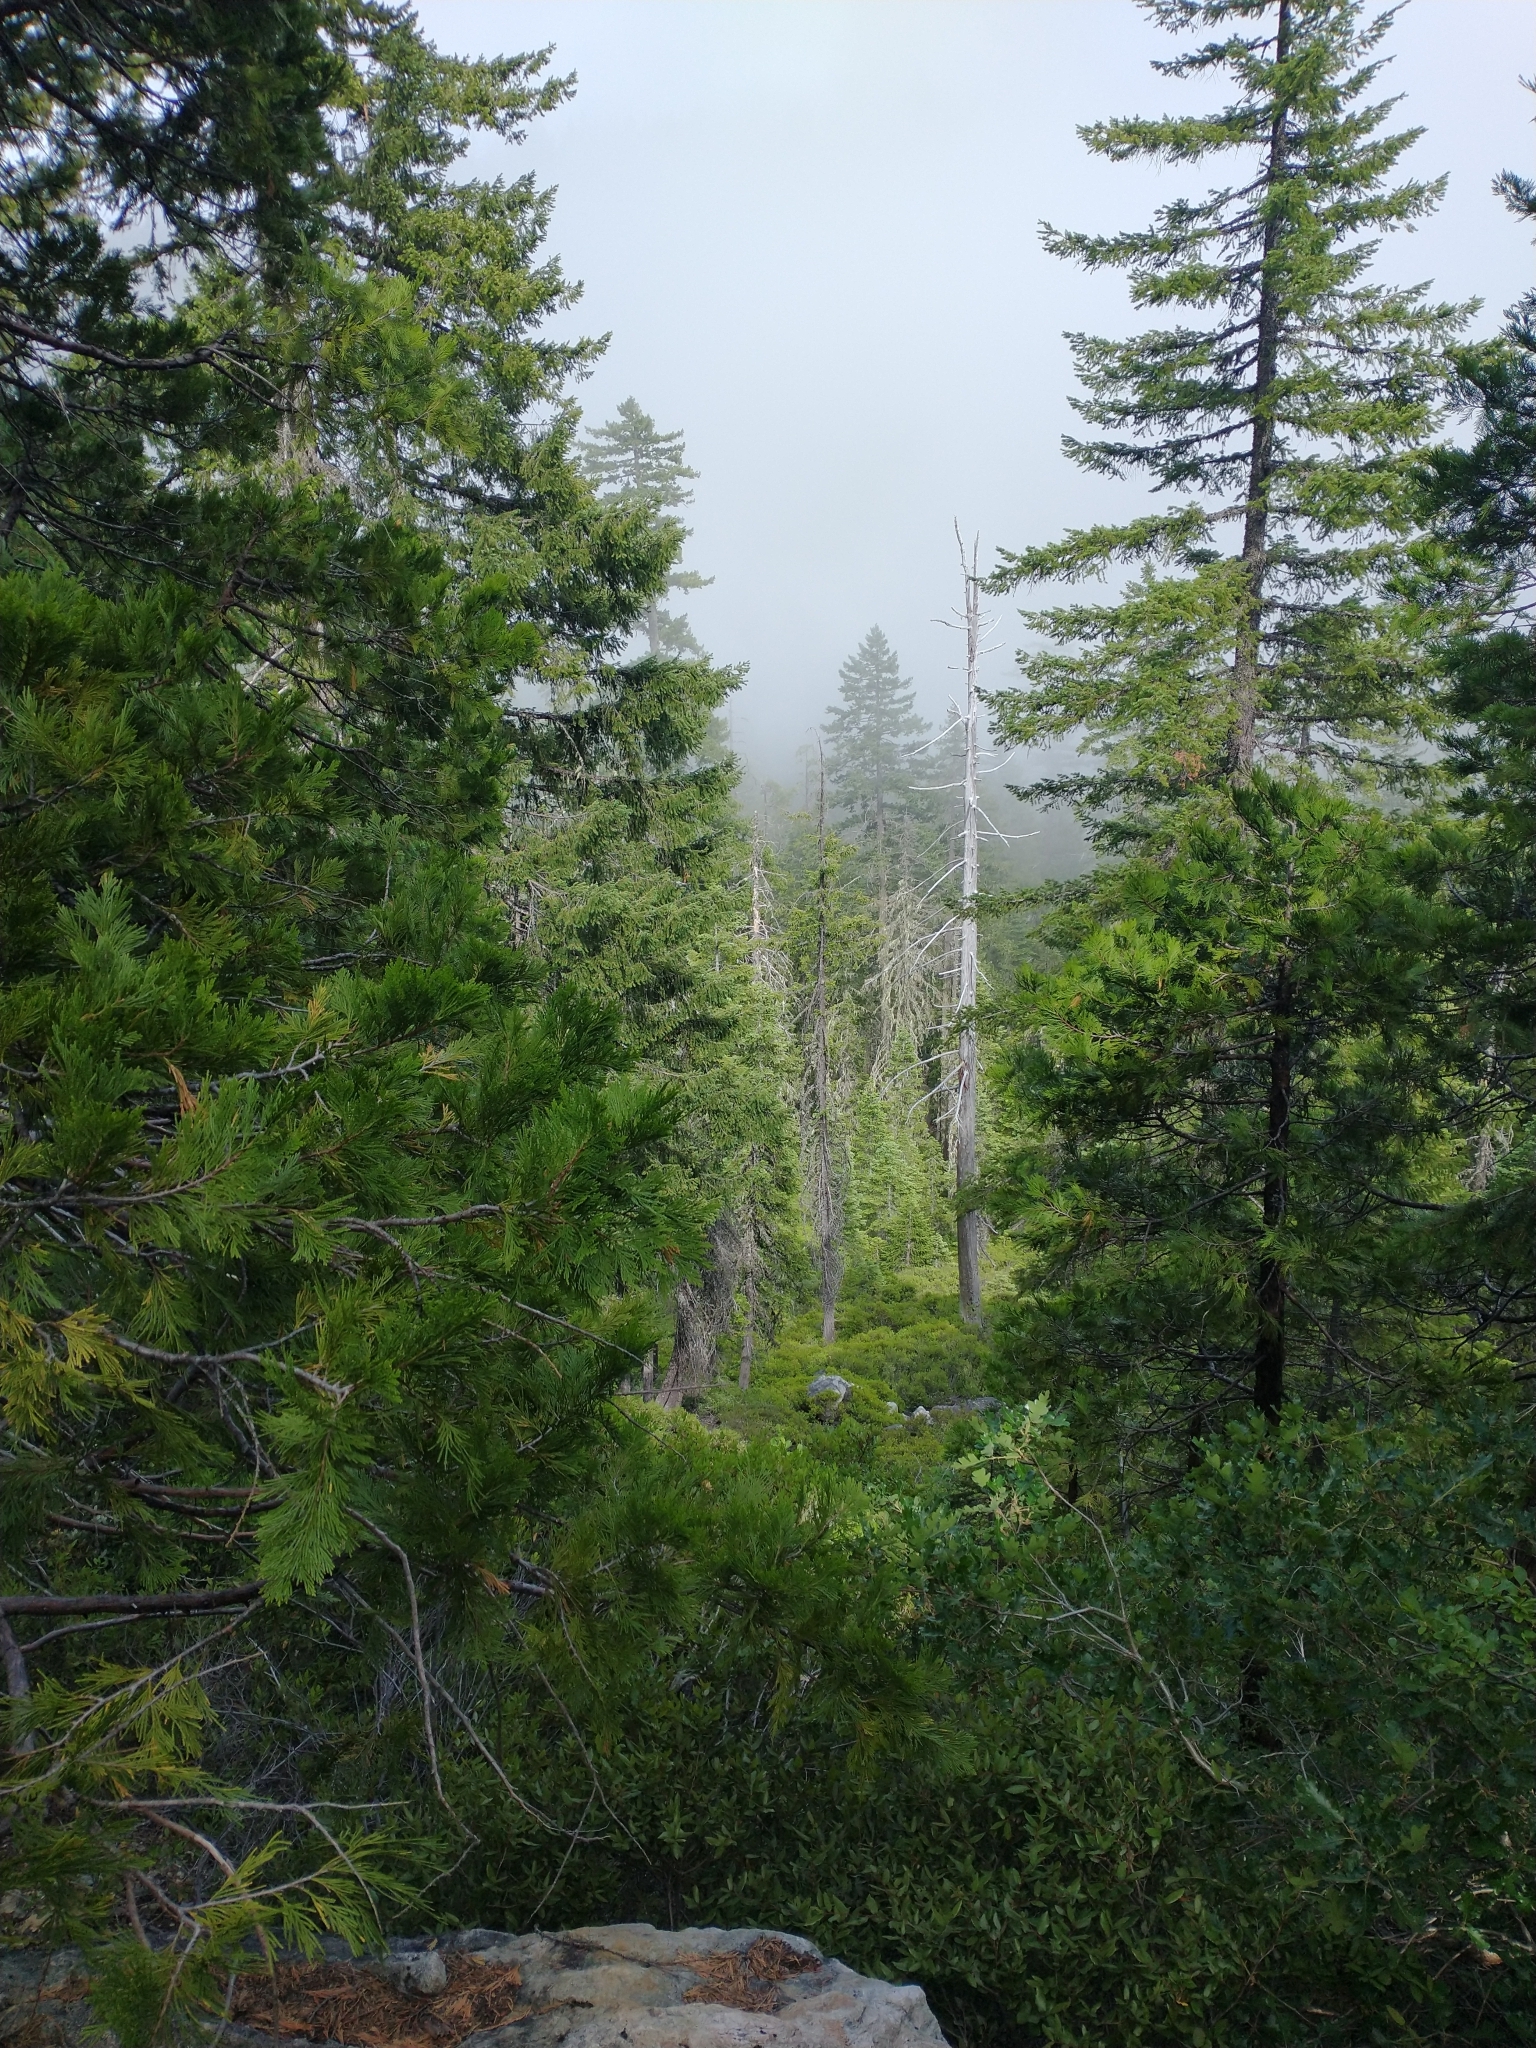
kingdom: Plantae
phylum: Tracheophyta
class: Pinopsida
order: Pinales
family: Pinaceae
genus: Pseudotsuga
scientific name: Pseudotsuga menziesii
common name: Douglas fir
